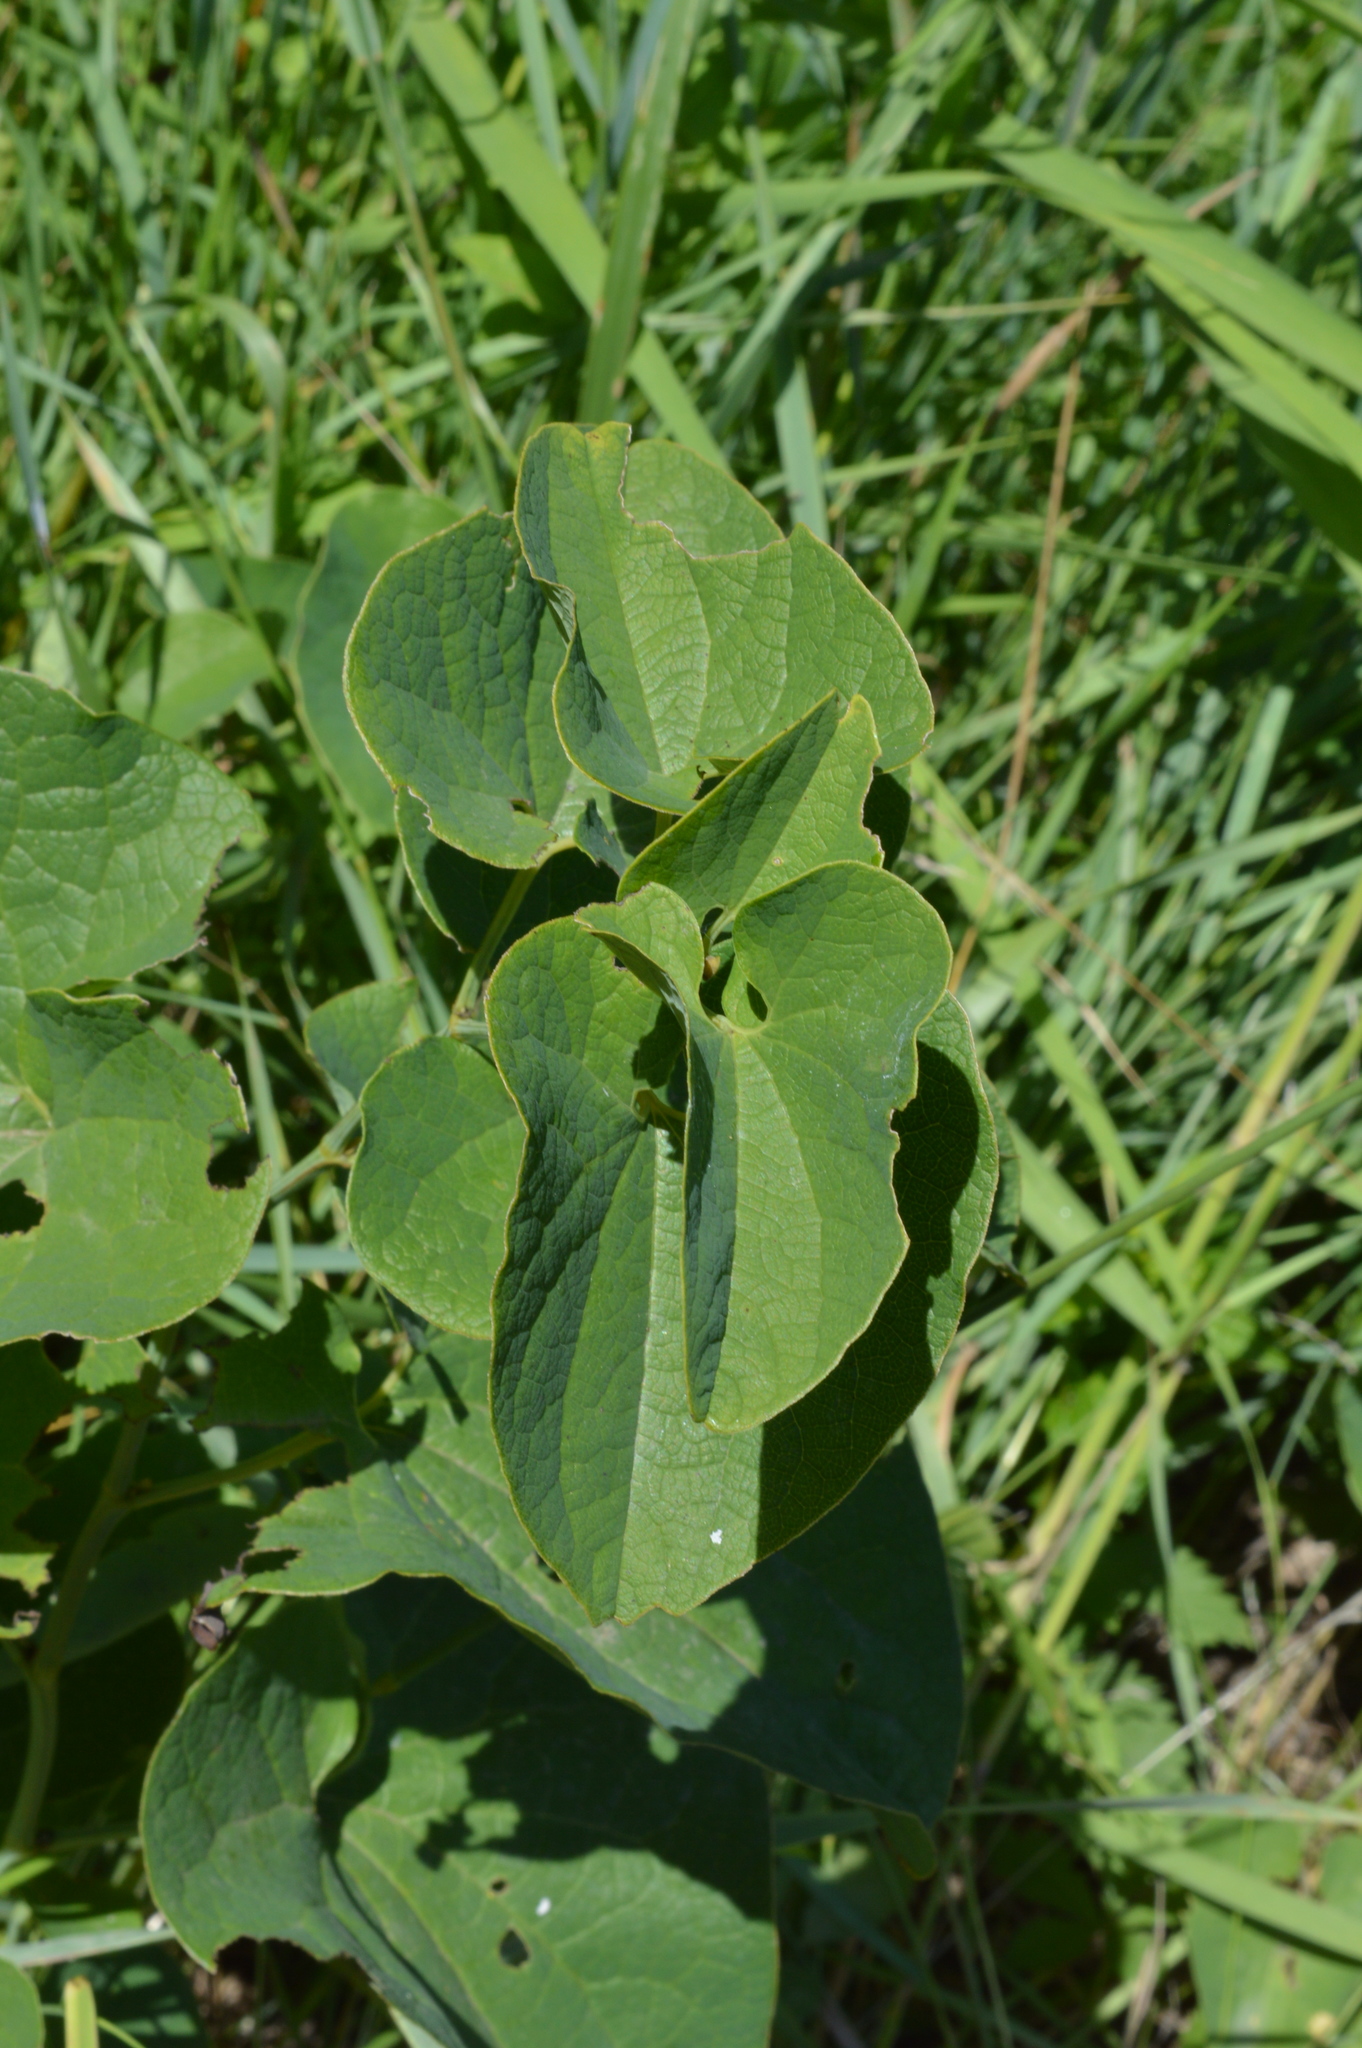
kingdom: Plantae
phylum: Tracheophyta
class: Magnoliopsida
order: Piperales
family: Aristolochiaceae
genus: Aristolochia
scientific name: Aristolochia clematitis
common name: Birthwort
